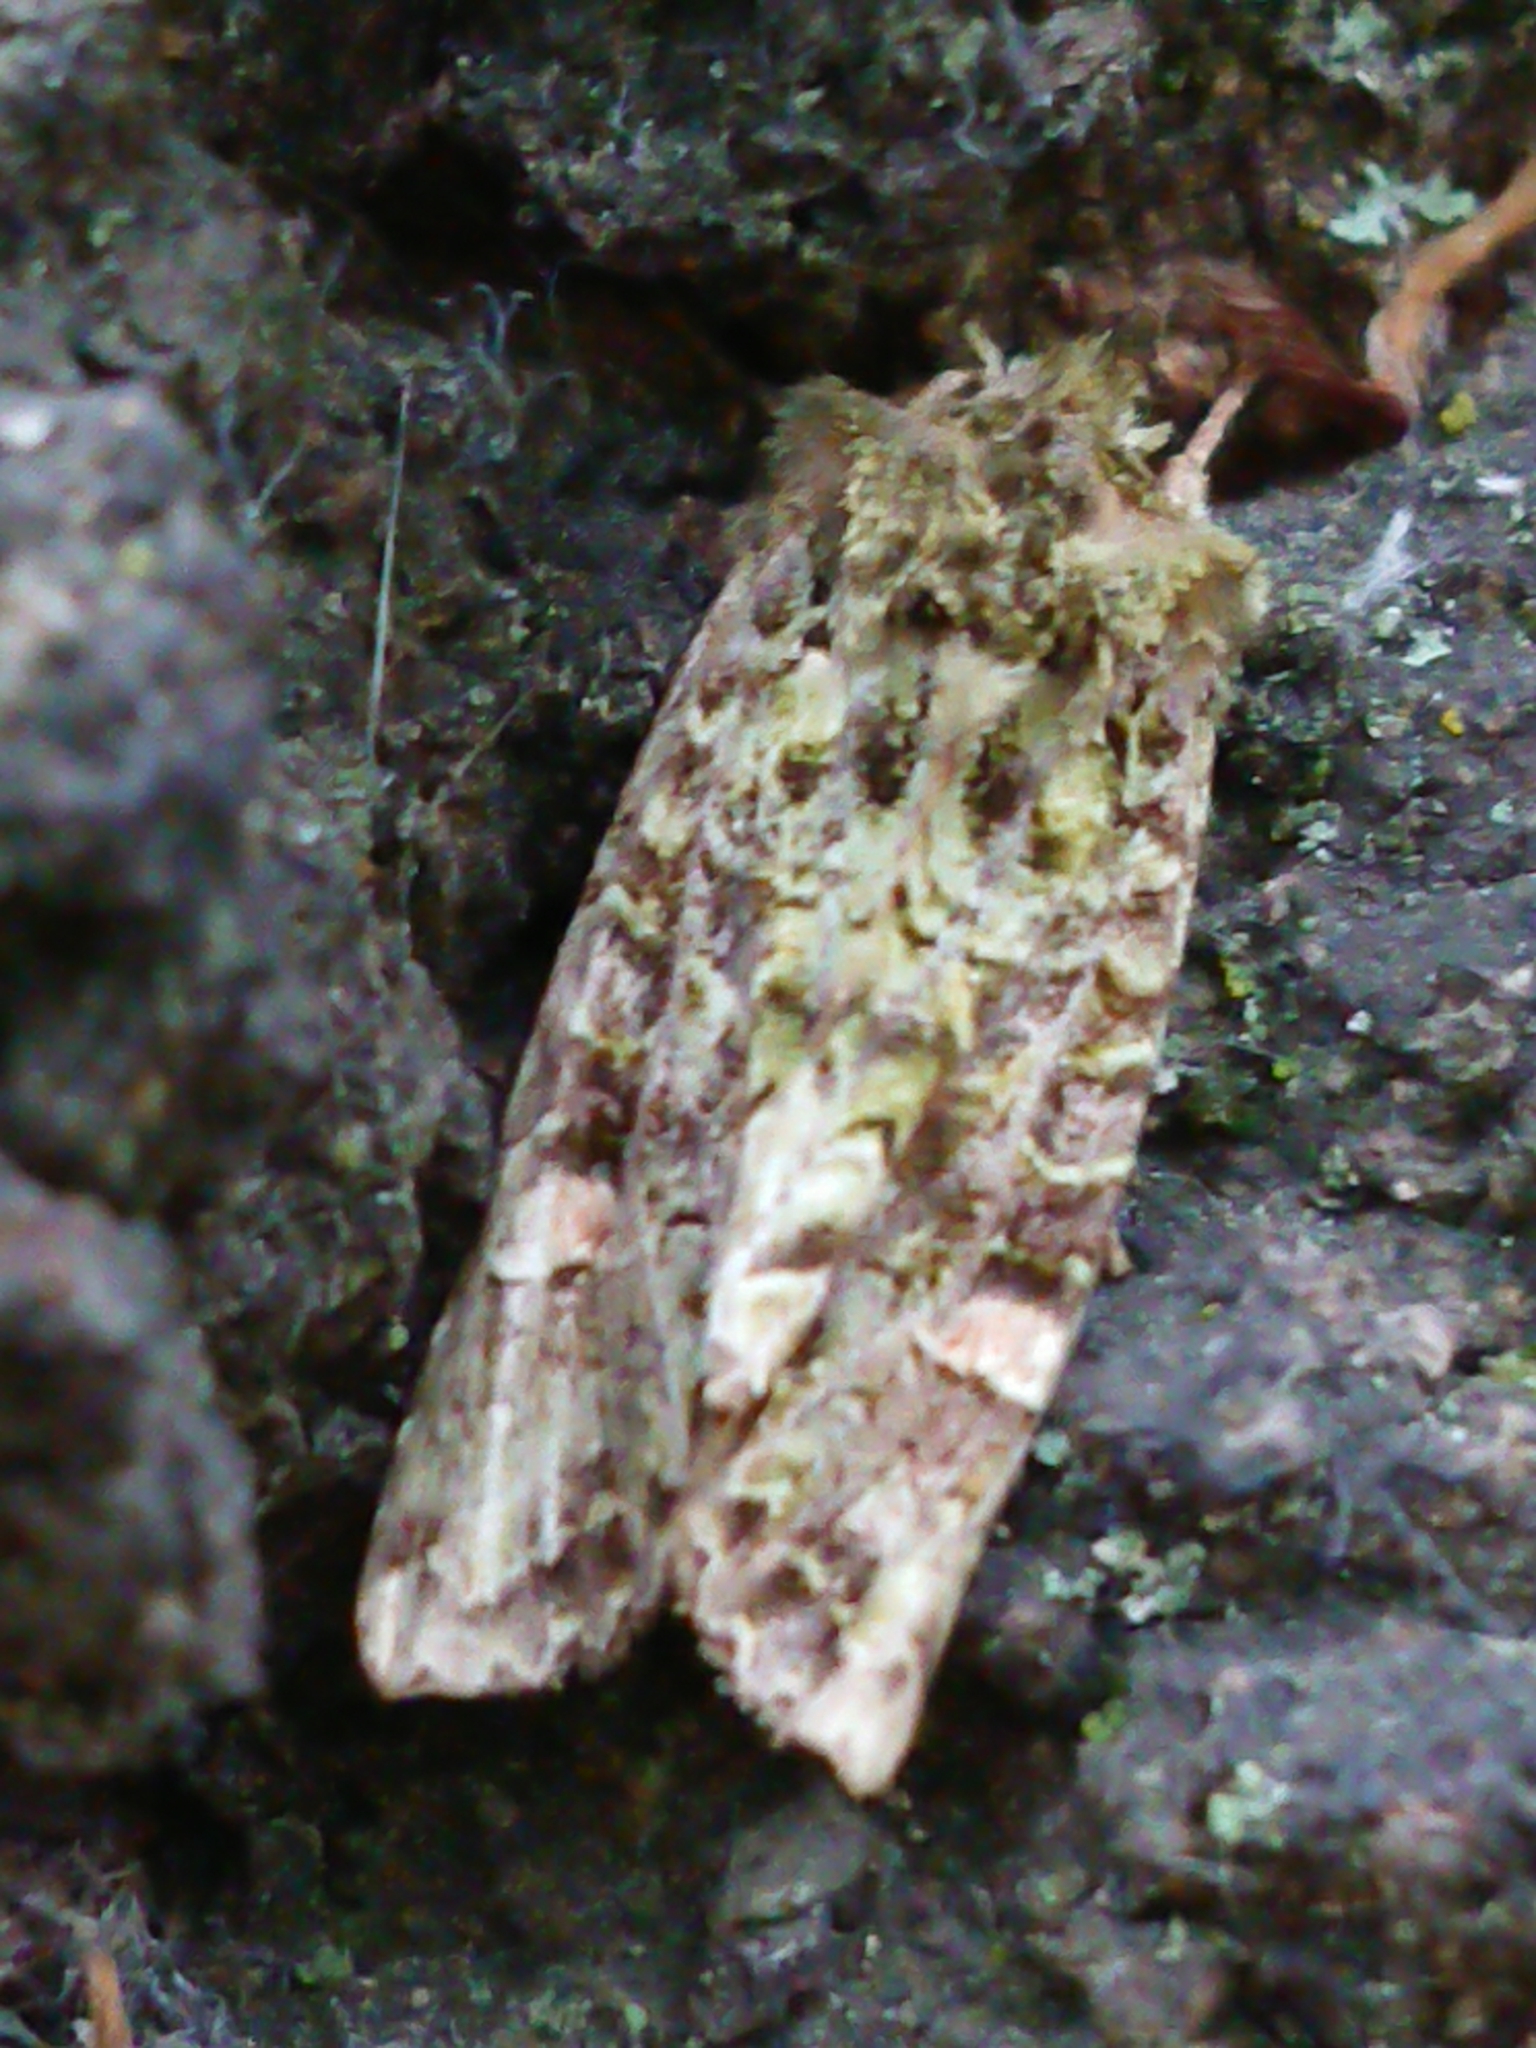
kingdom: Animalia
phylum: Arthropoda
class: Insecta
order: Lepidoptera
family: Noctuidae
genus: Ichneutica
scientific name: Ichneutica
